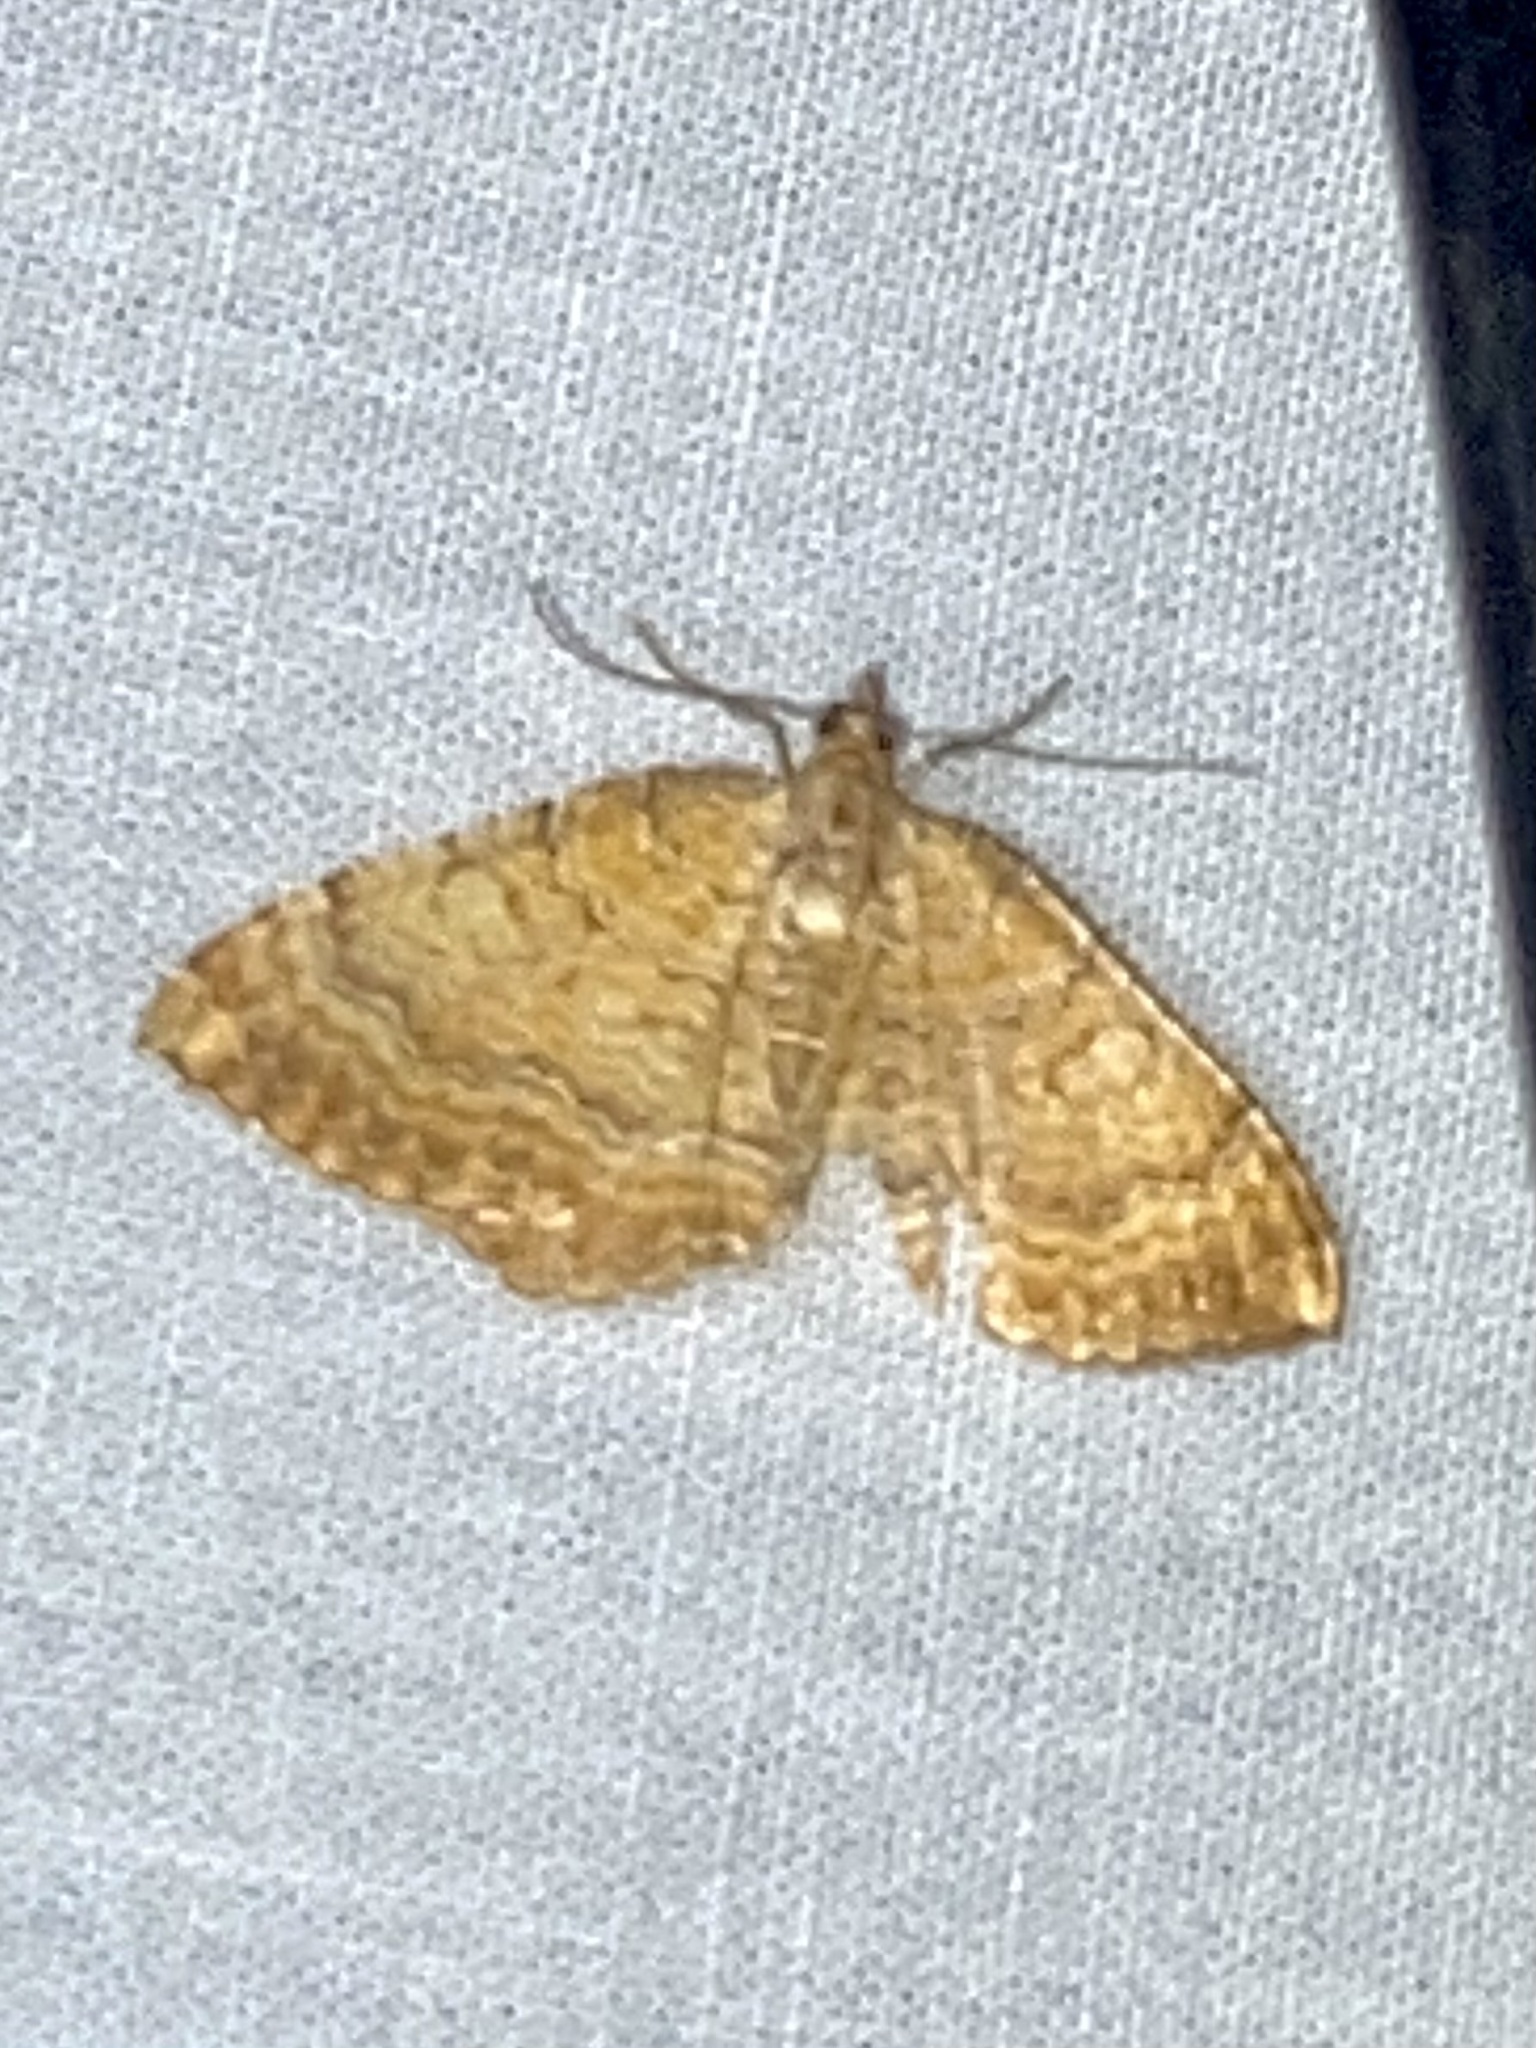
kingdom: Animalia
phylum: Arthropoda
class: Insecta
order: Lepidoptera
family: Geometridae
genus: Camptogramma
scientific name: Camptogramma bilineata
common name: Yellow shell
